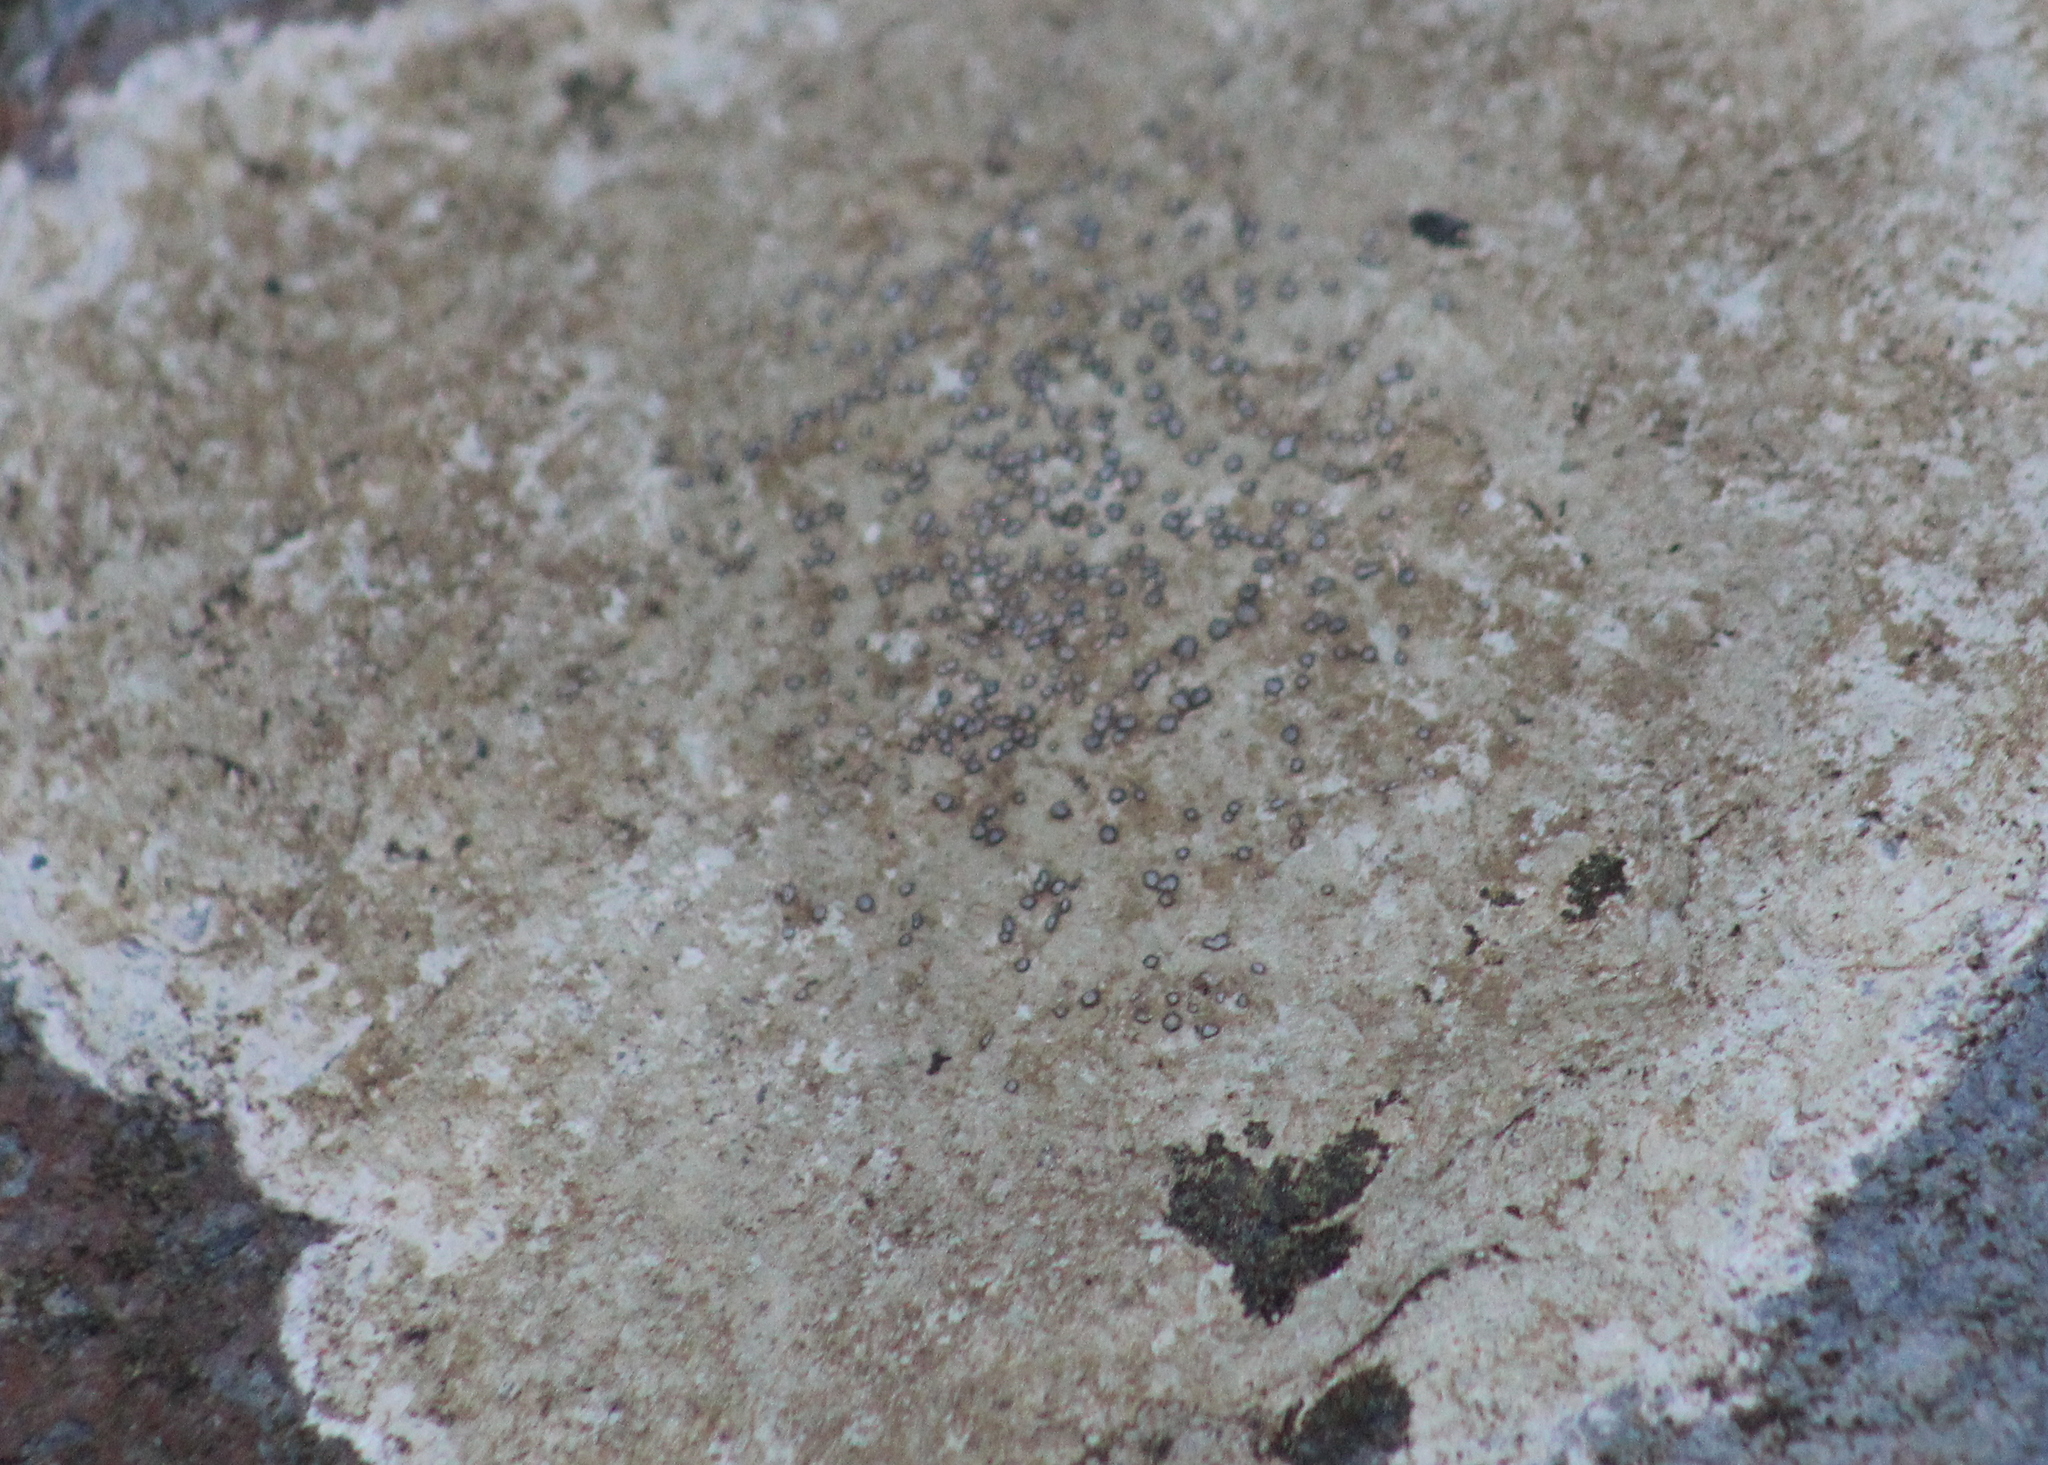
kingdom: Fungi
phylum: Ascomycota
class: Lecanoromycetes
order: Lecideales
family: Lecideaceae
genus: Porpidia
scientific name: Porpidia albocaerulescens
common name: Smokey-eyed boulder lichen
